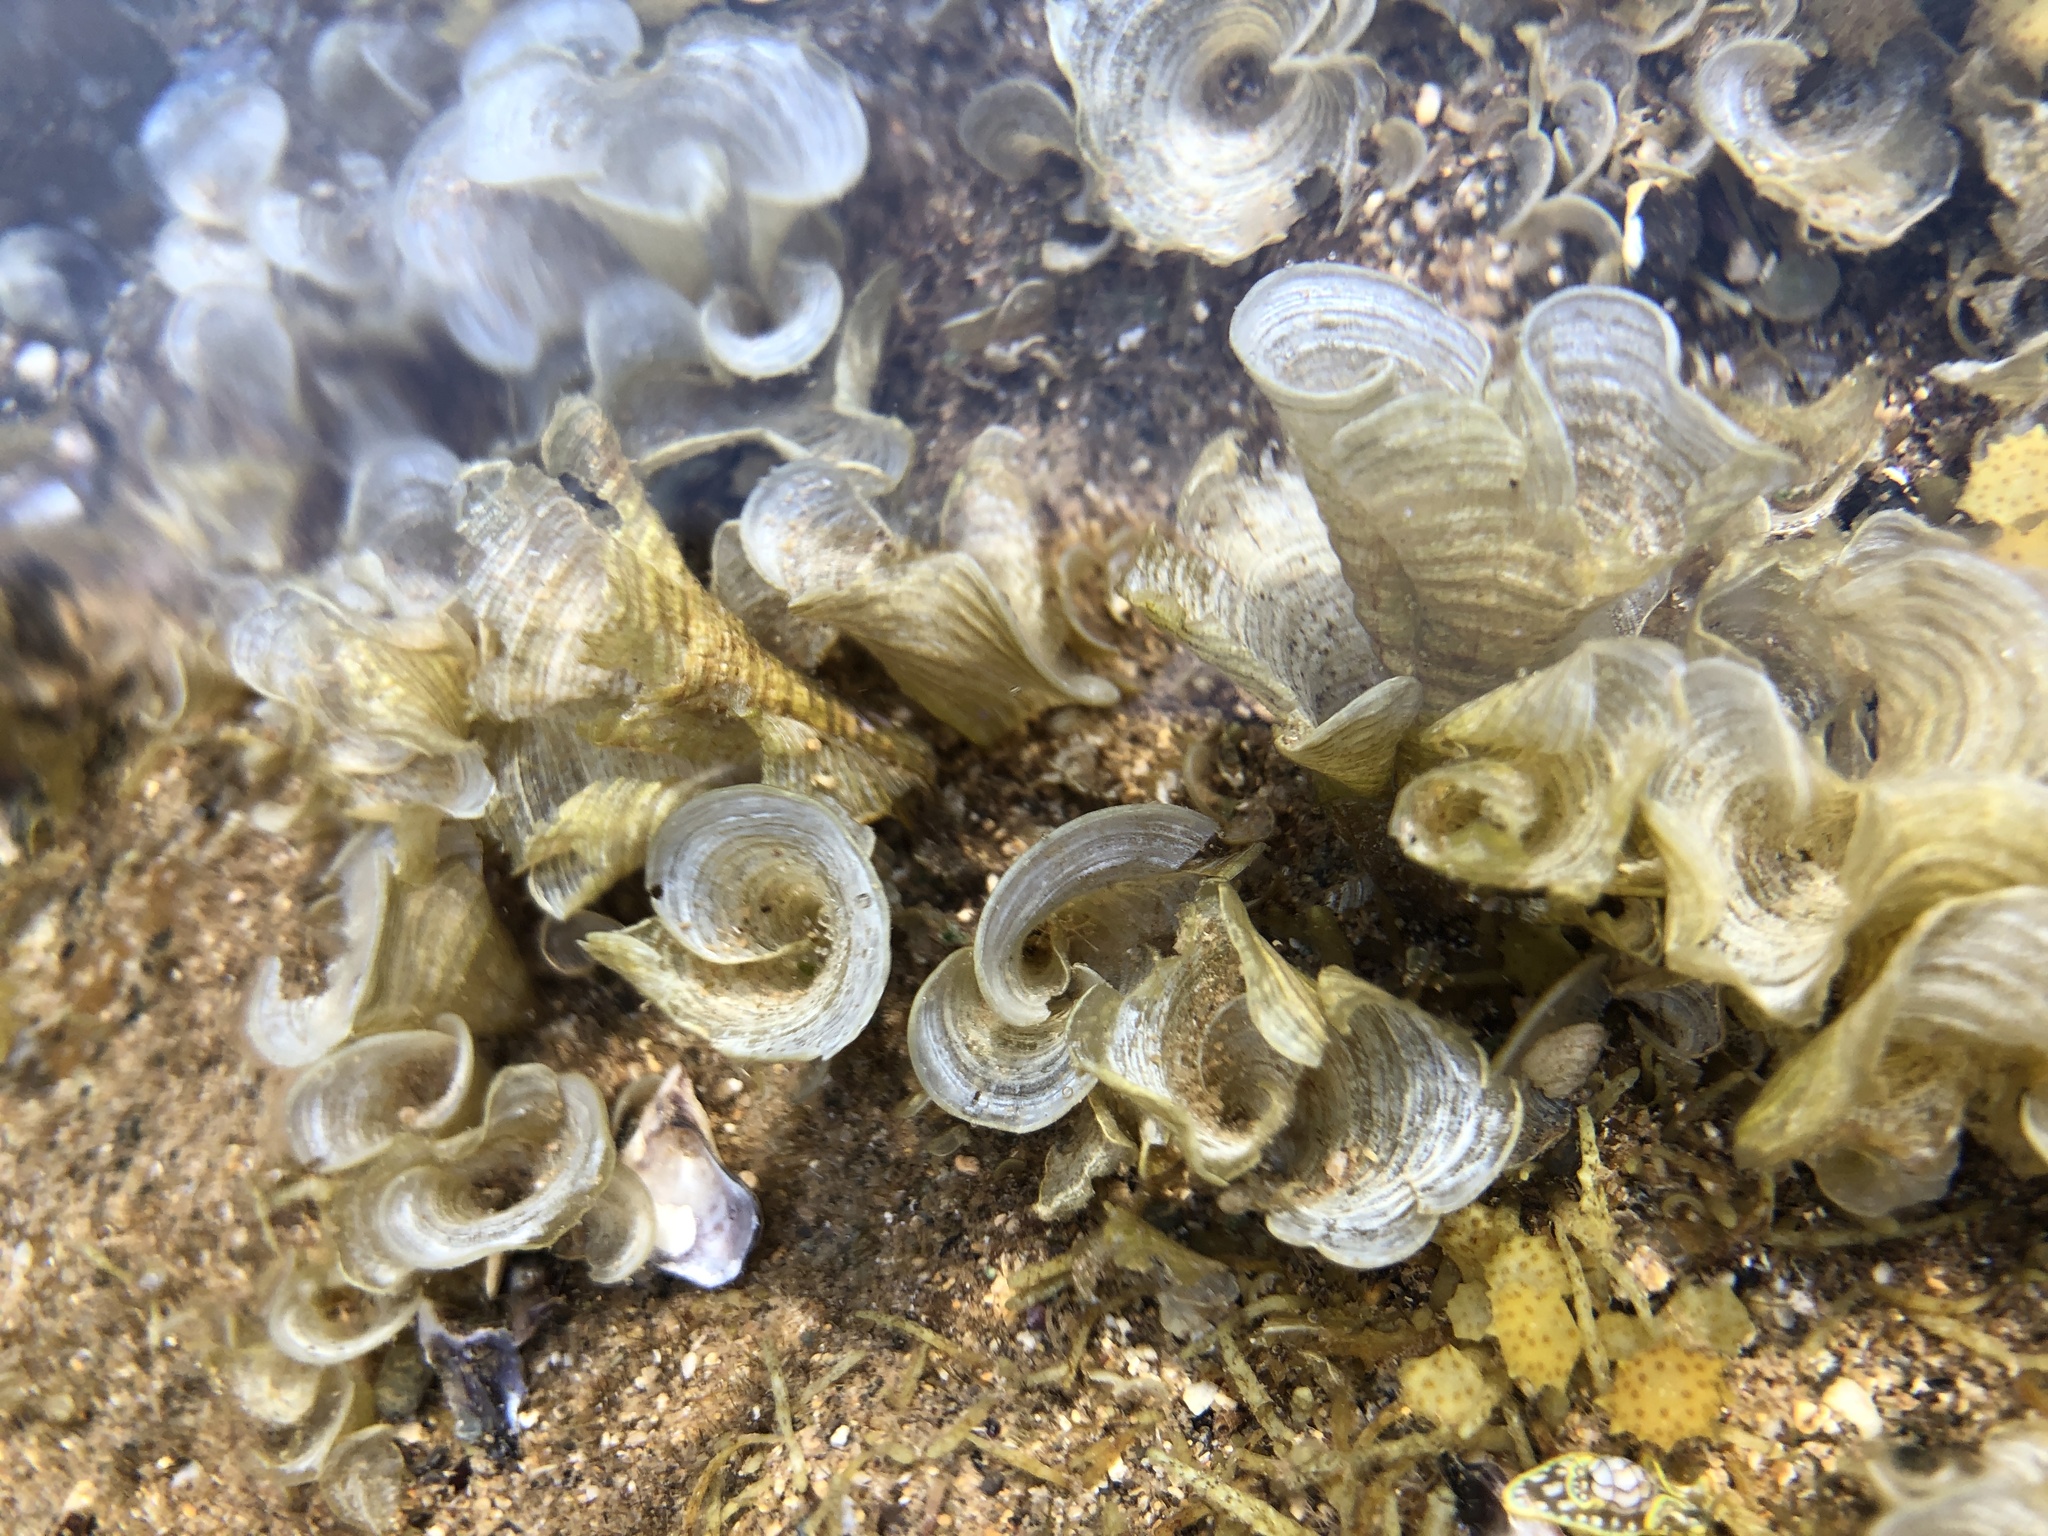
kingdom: Chromista
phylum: Ochrophyta
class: Phaeophyceae
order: Dictyotales
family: Dictyotaceae
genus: Padina
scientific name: Padina sanctae-crucis
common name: White scroll algae
